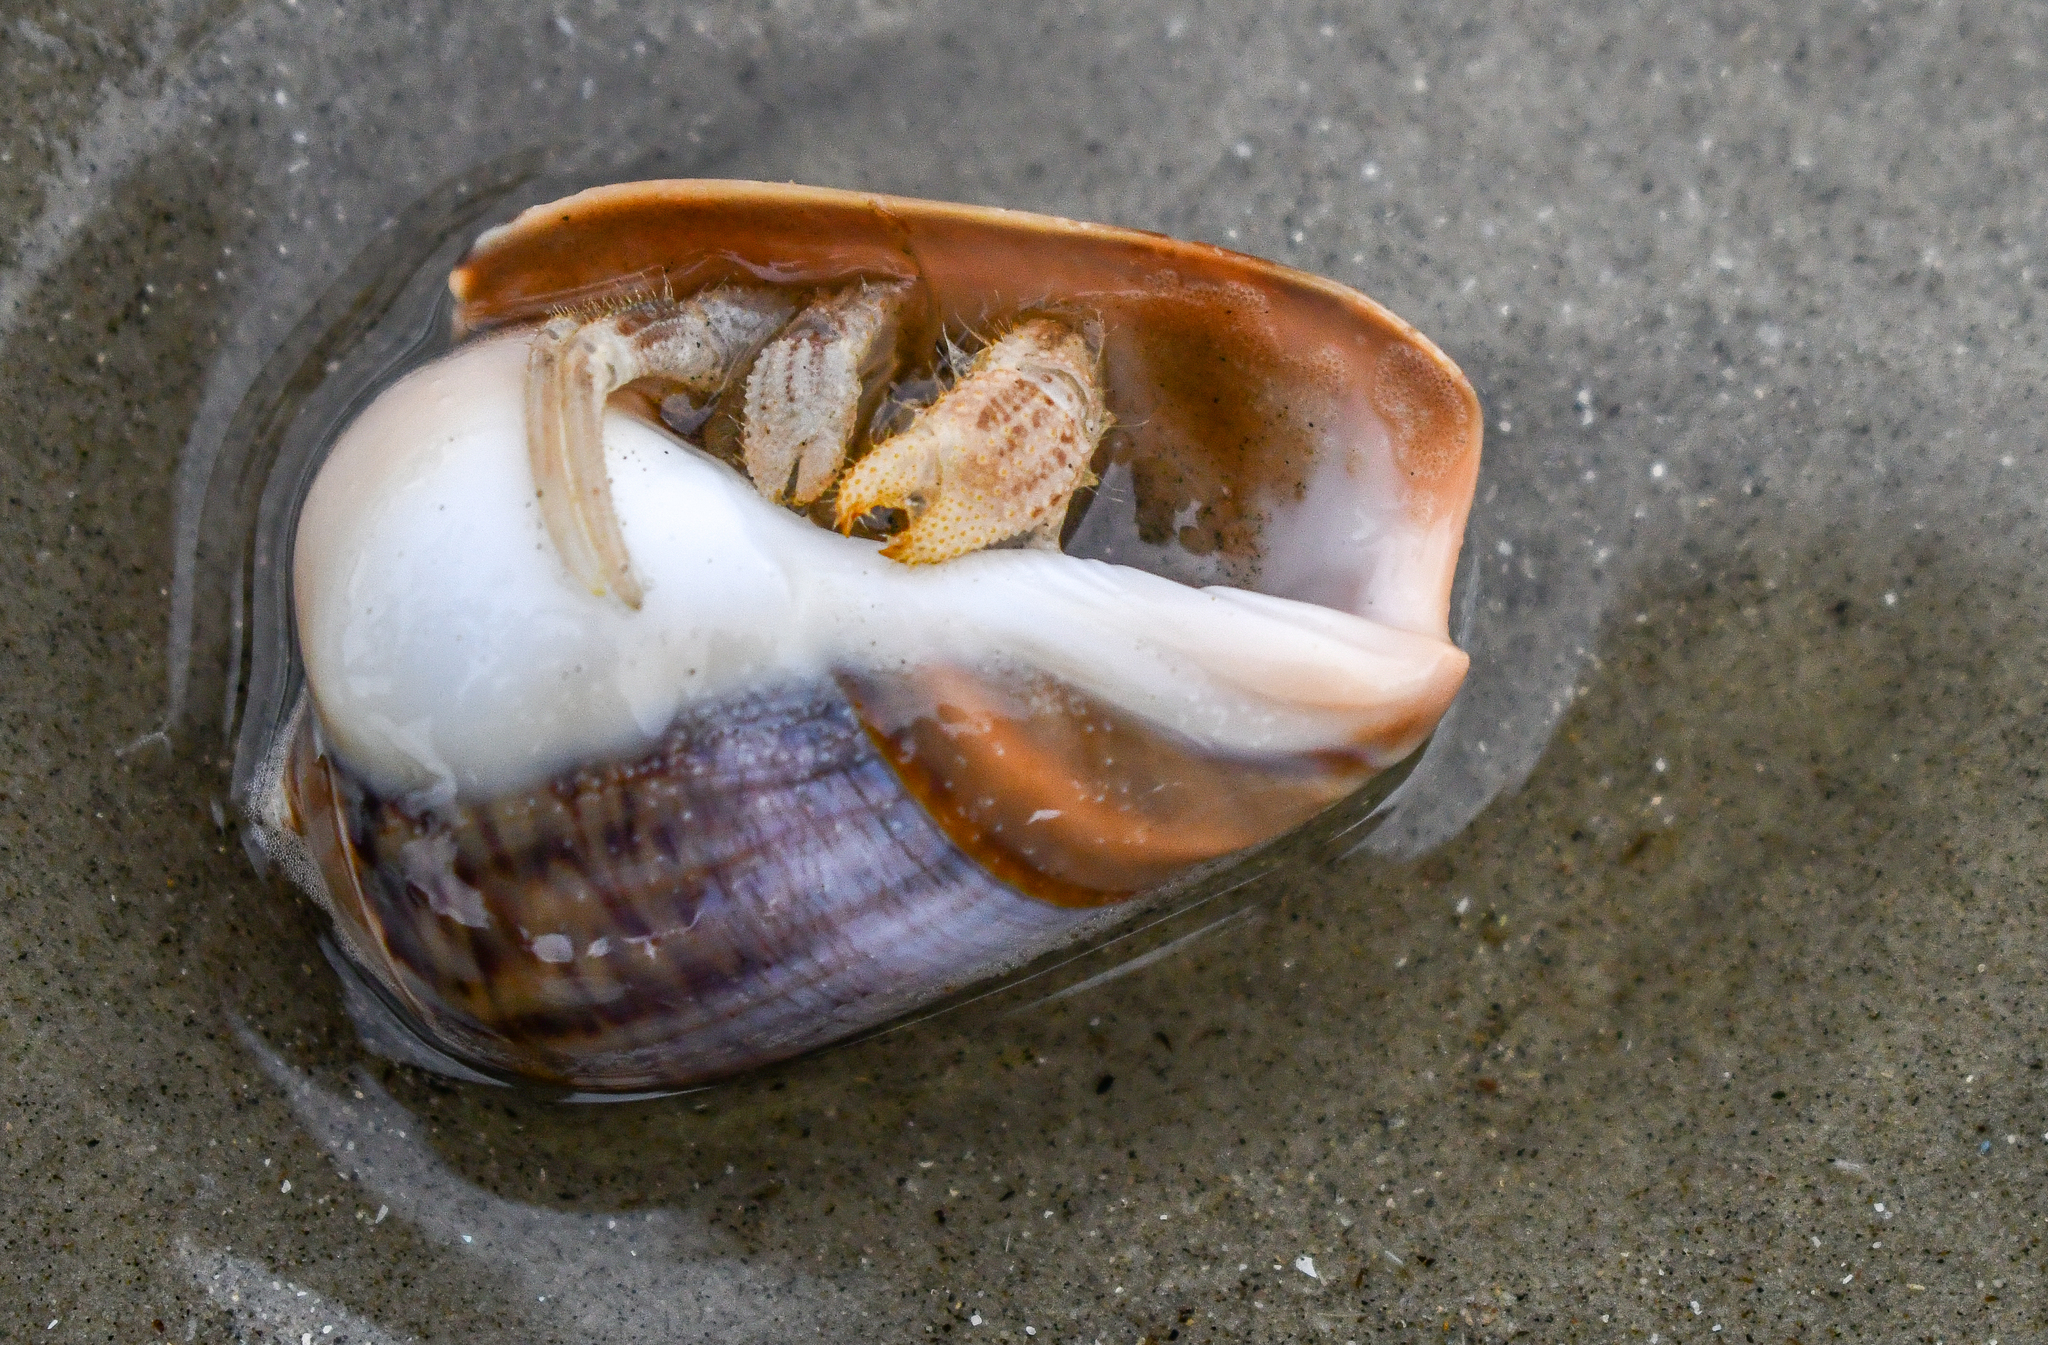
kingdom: Animalia
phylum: Arthropoda
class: Malacostraca
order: Decapoda
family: Diogenidae
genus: Isocheles
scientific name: Isocheles sawayai
